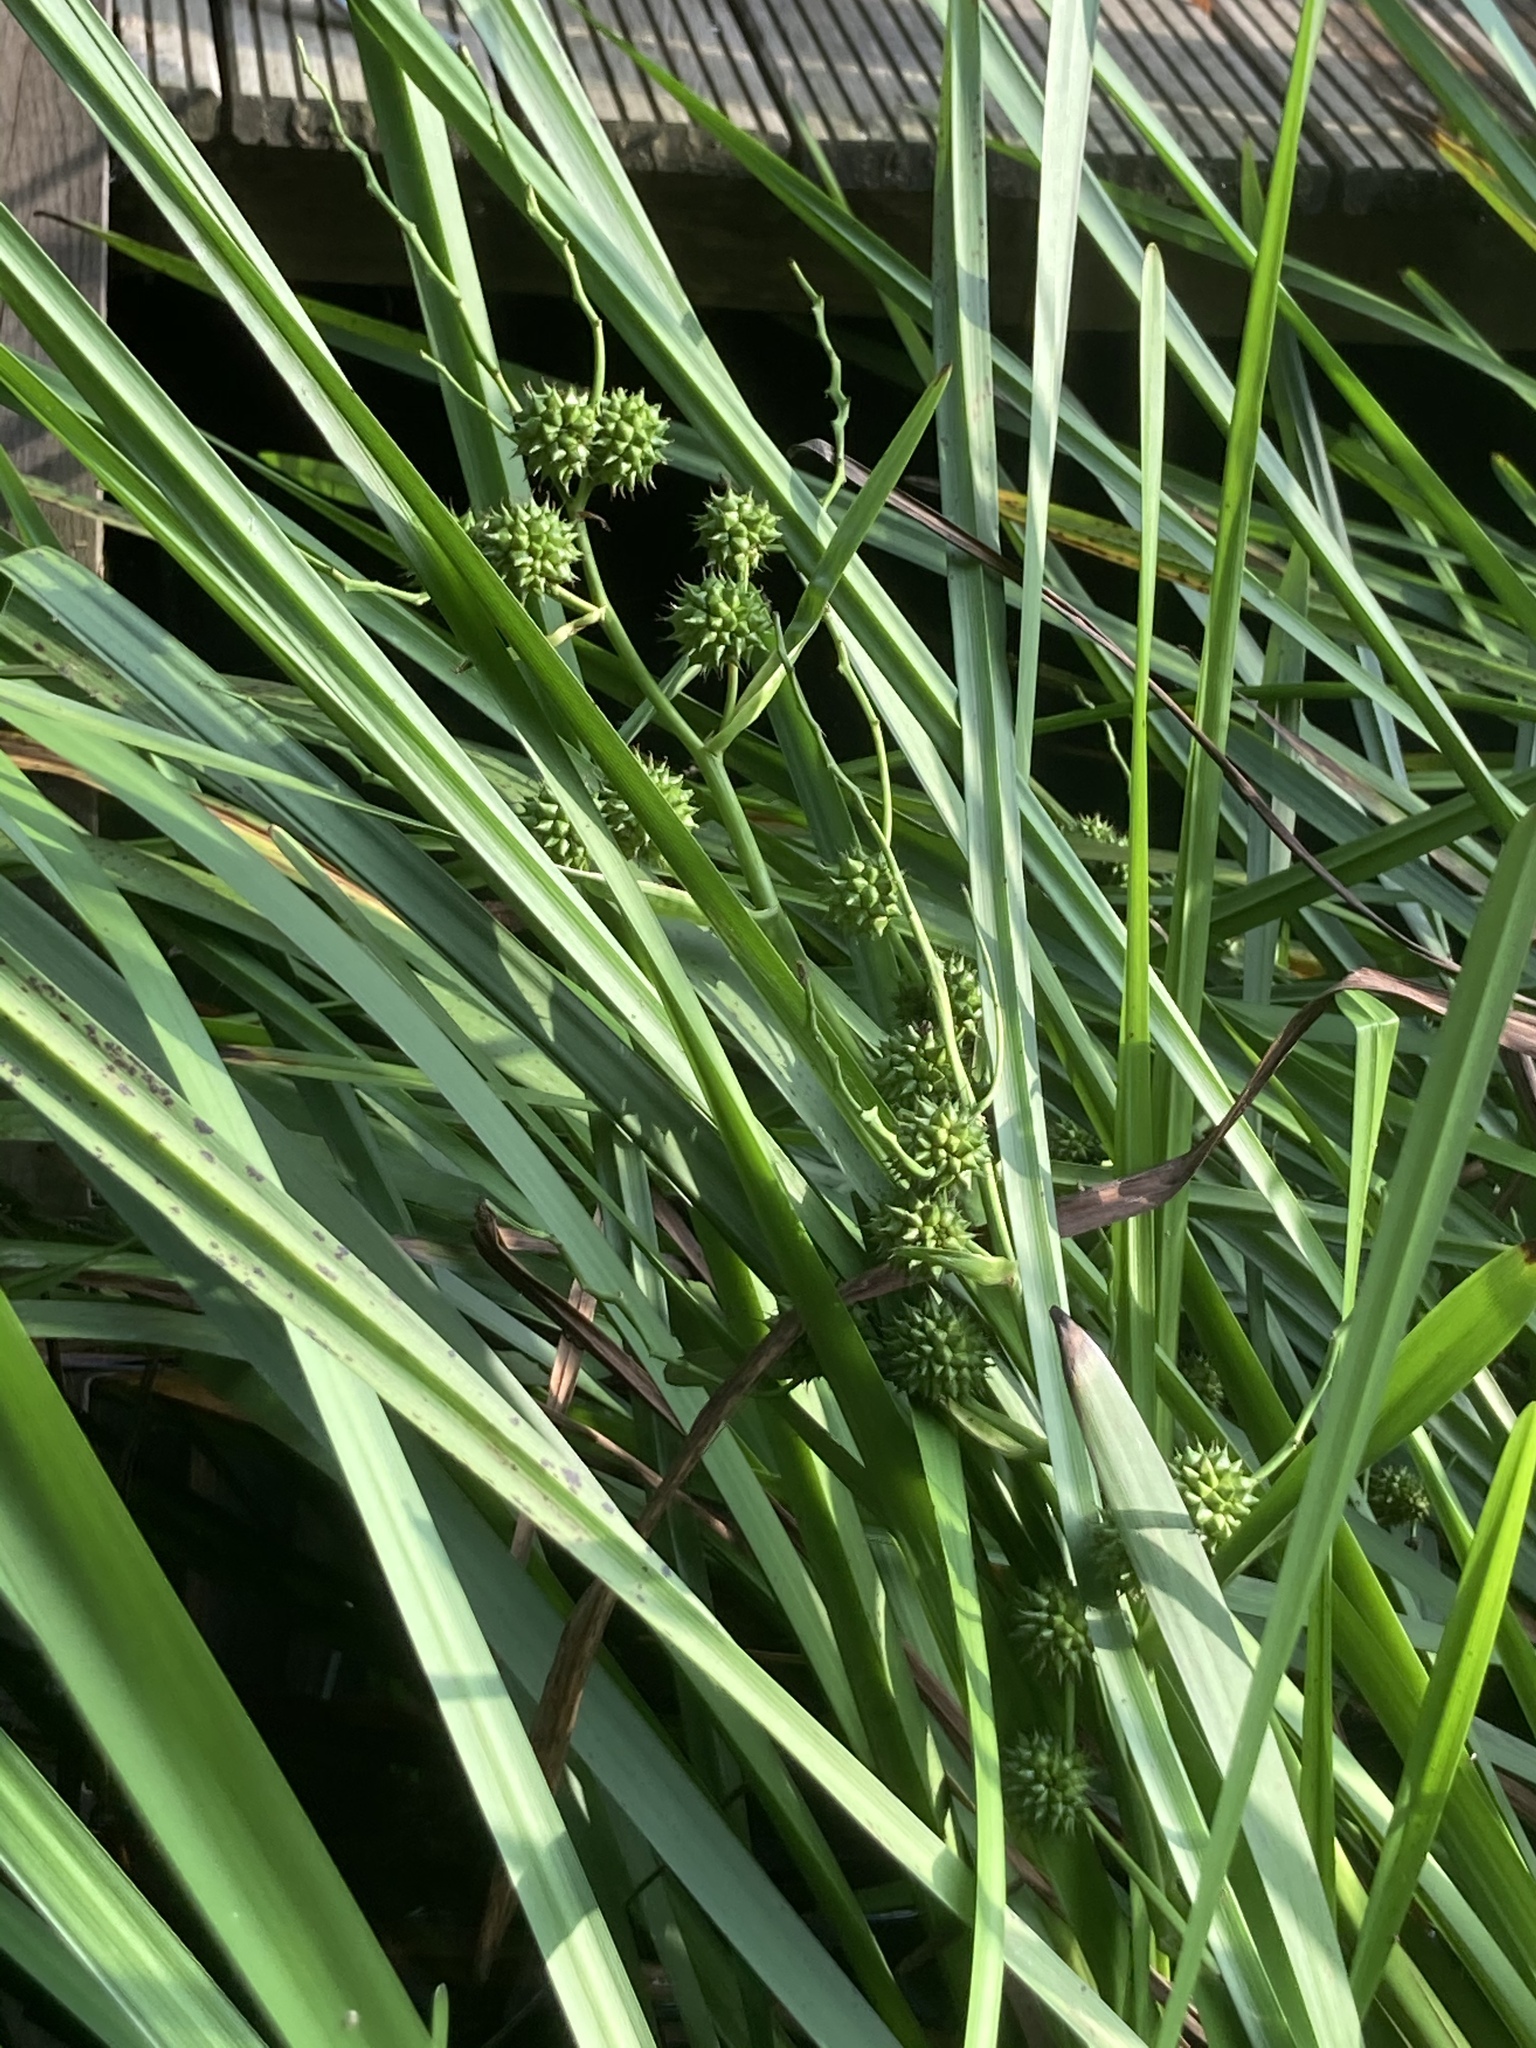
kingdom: Plantae
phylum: Tracheophyta
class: Liliopsida
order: Poales
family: Typhaceae
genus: Sparganium
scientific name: Sparganium erectum
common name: Branched bur-reed
